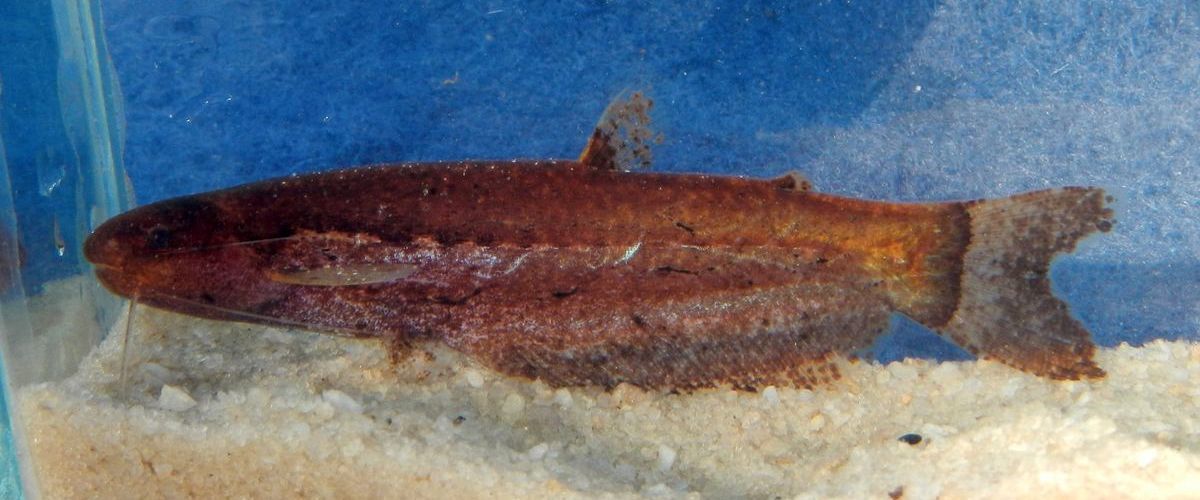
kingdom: Animalia
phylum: Chordata
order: Siluriformes
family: Cetopsidae
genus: Helogenes
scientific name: Helogenes marmoratus
